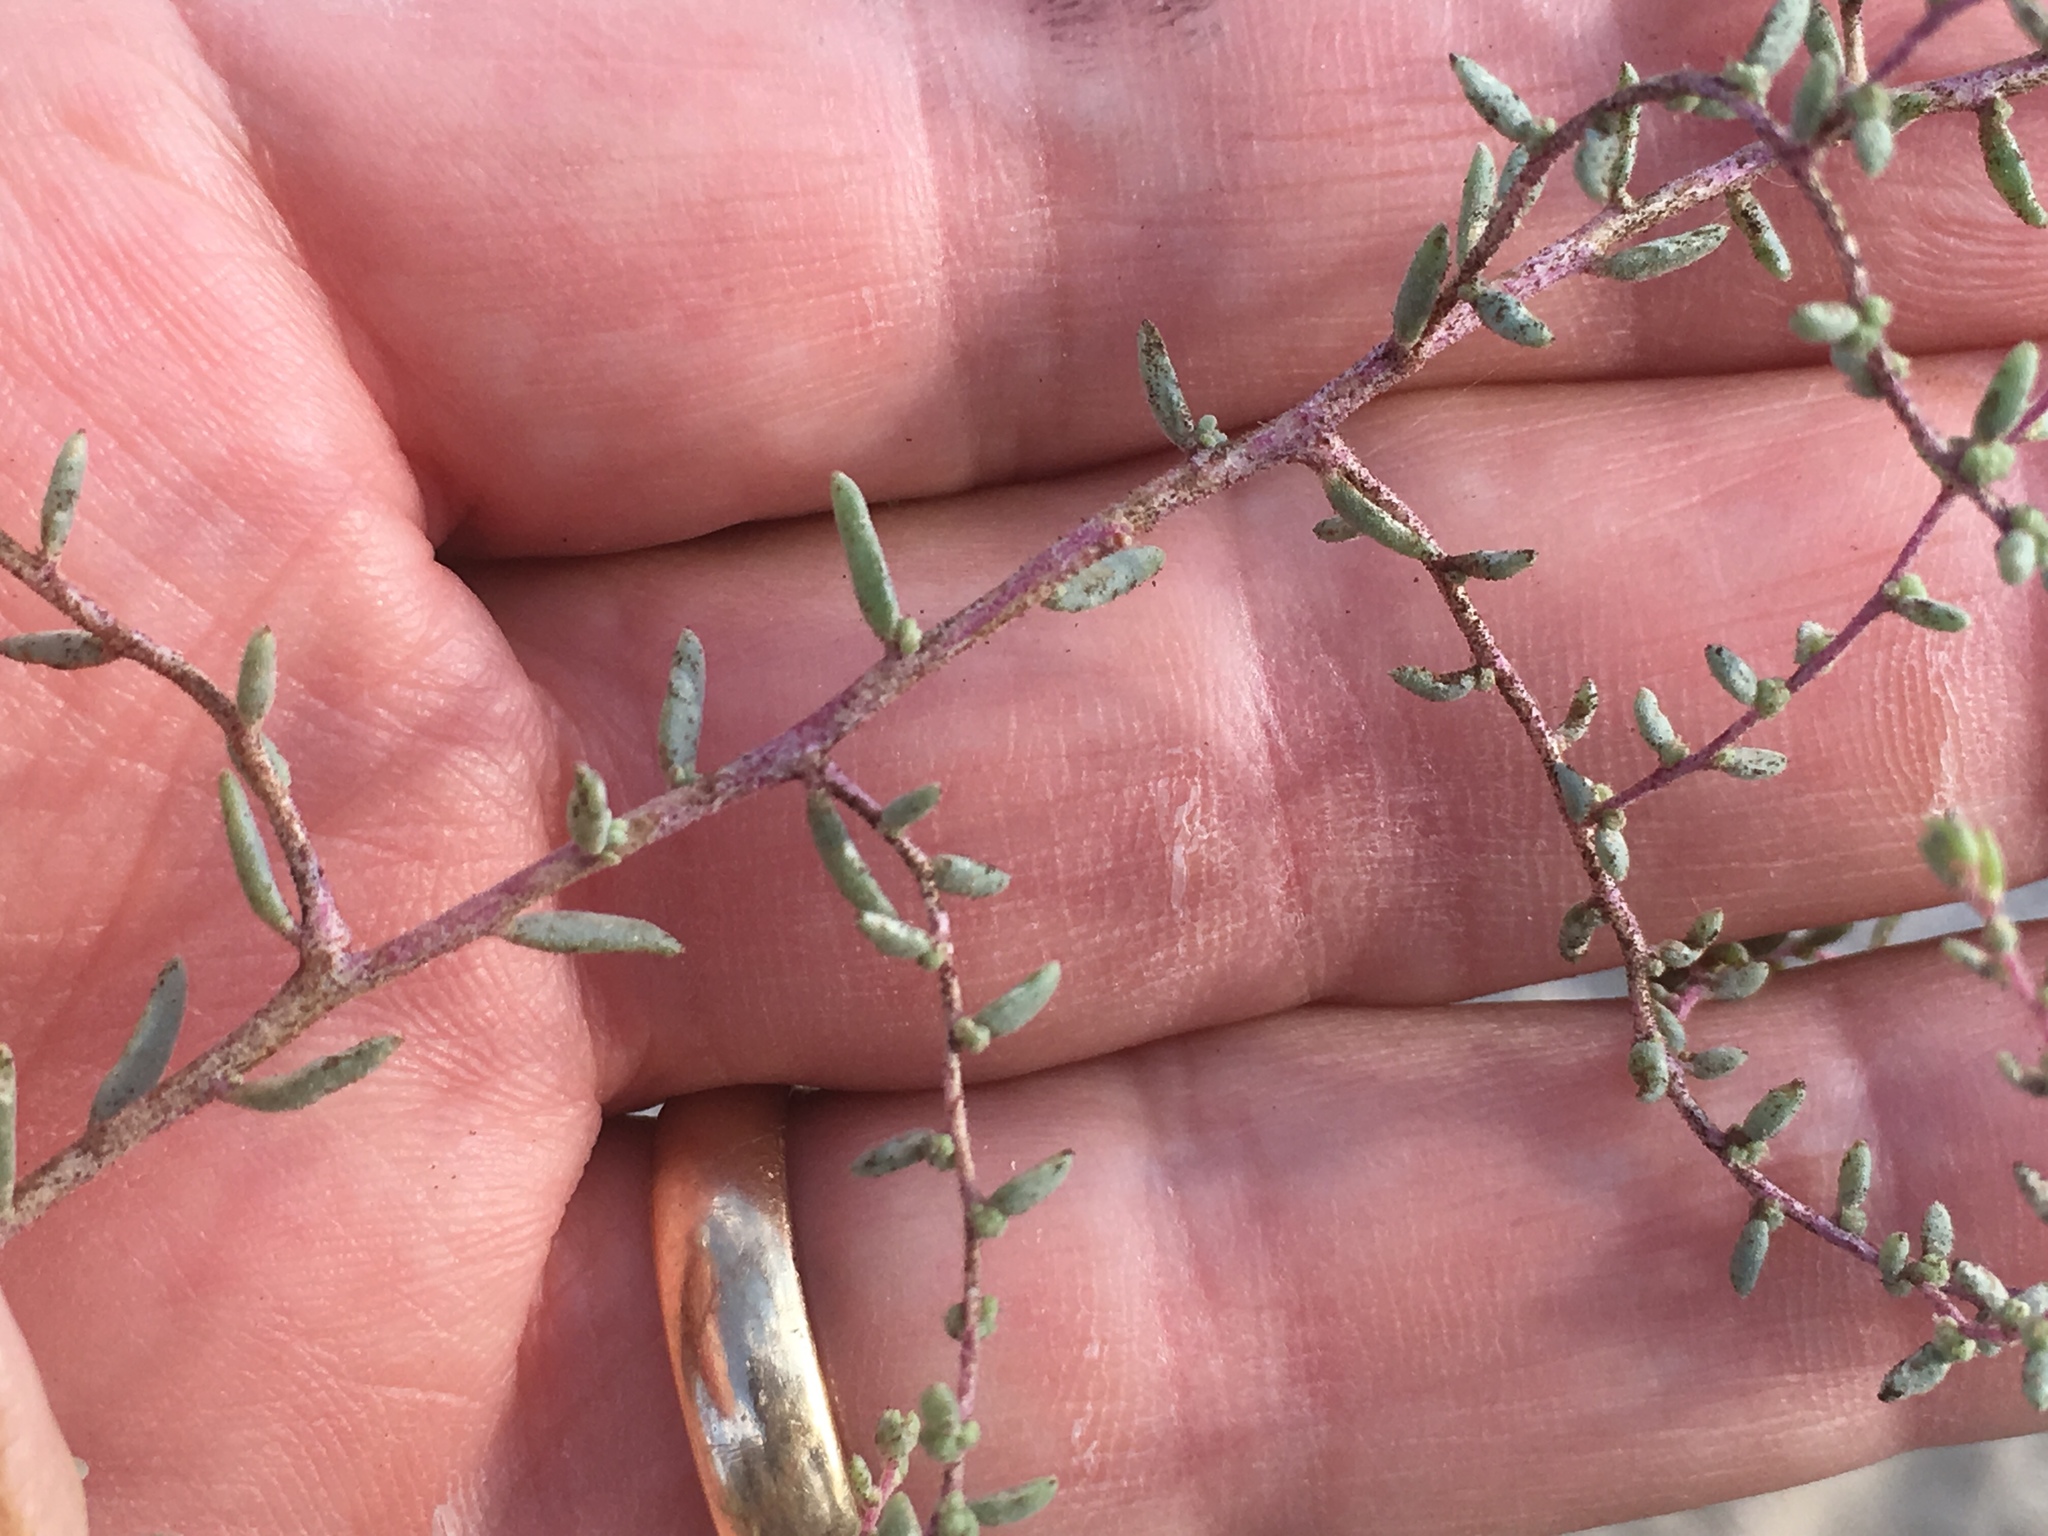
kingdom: Plantae
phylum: Tracheophyta
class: Magnoliopsida
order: Caryophyllales
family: Amaranthaceae
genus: Suaeda
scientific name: Suaeda nigra
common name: Bush seepweed
